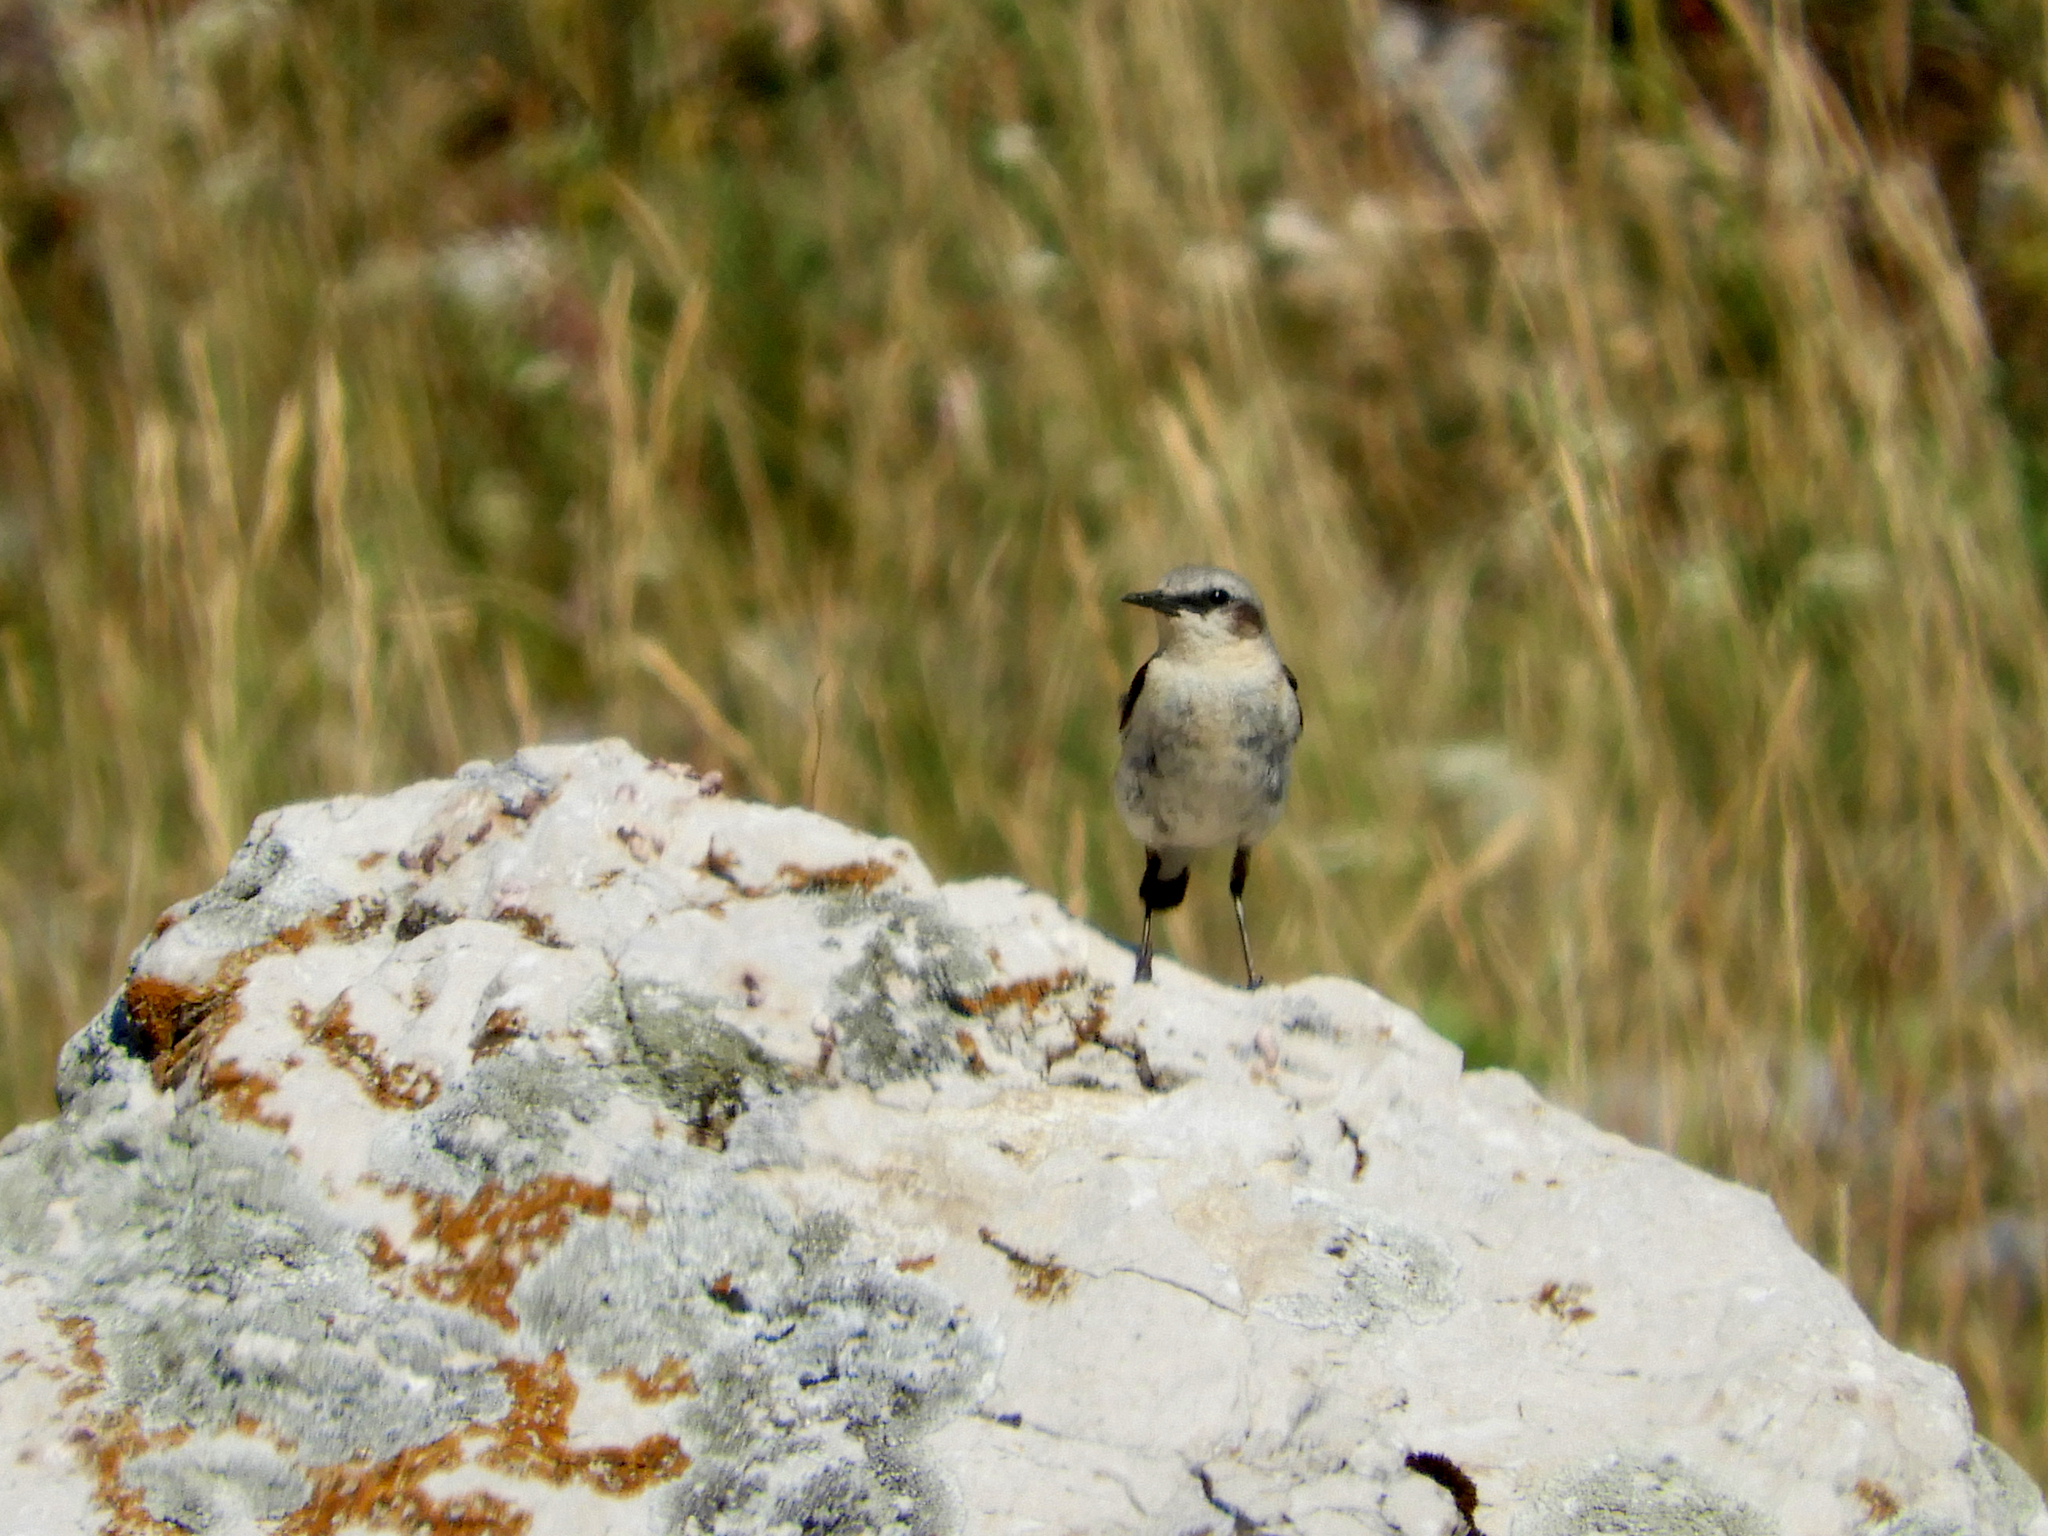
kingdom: Animalia
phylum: Chordata
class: Aves
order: Passeriformes
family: Muscicapidae
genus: Oenanthe
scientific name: Oenanthe oenanthe
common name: Northern wheatear
